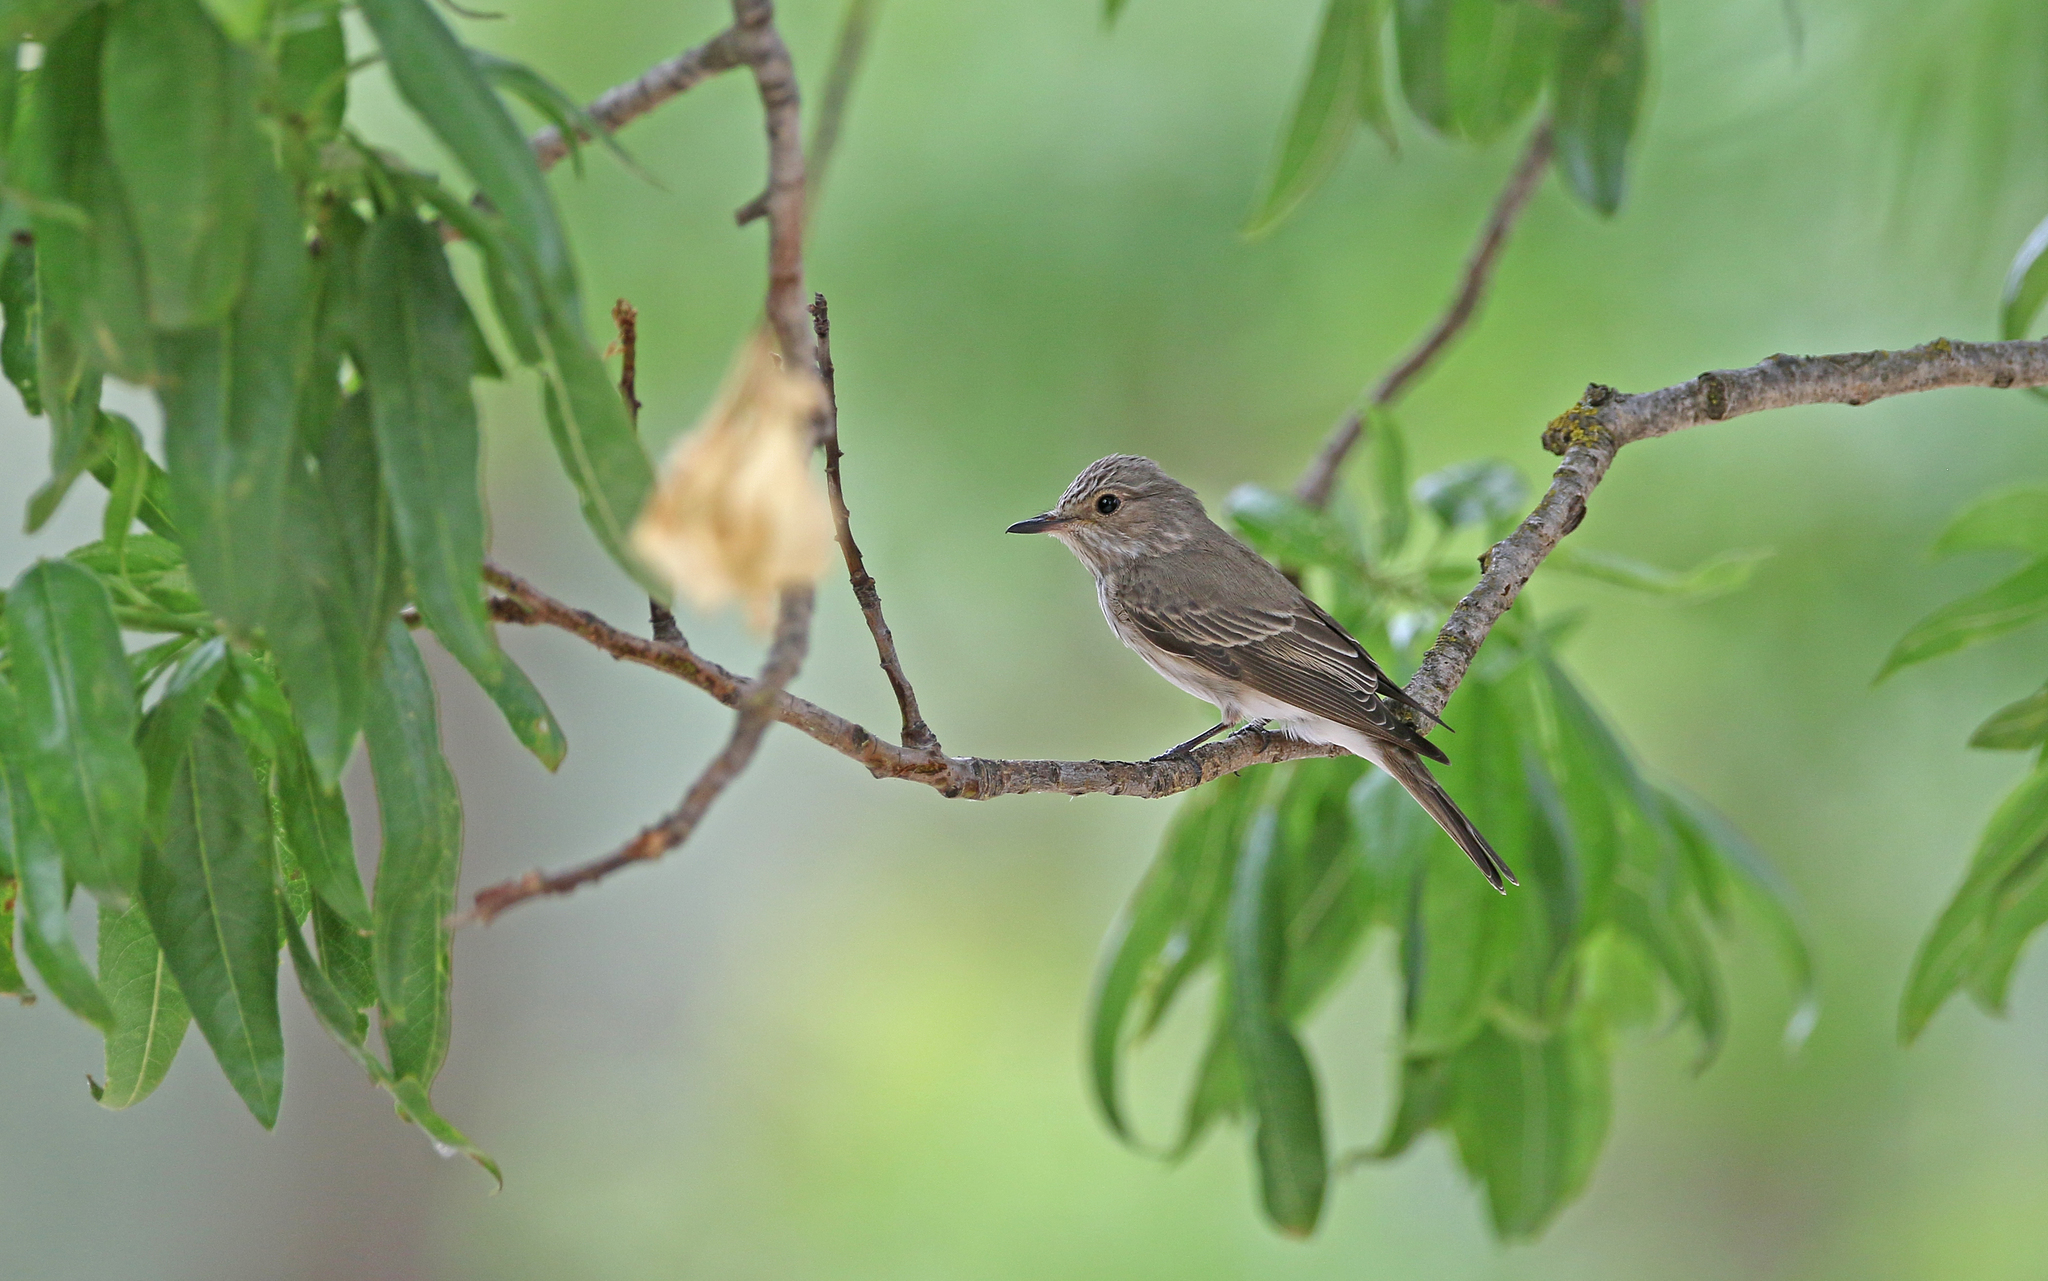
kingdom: Animalia
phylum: Chordata
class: Aves
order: Passeriformes
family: Muscicapidae
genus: Muscicapa
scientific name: Muscicapa striata
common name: Spotted flycatcher
